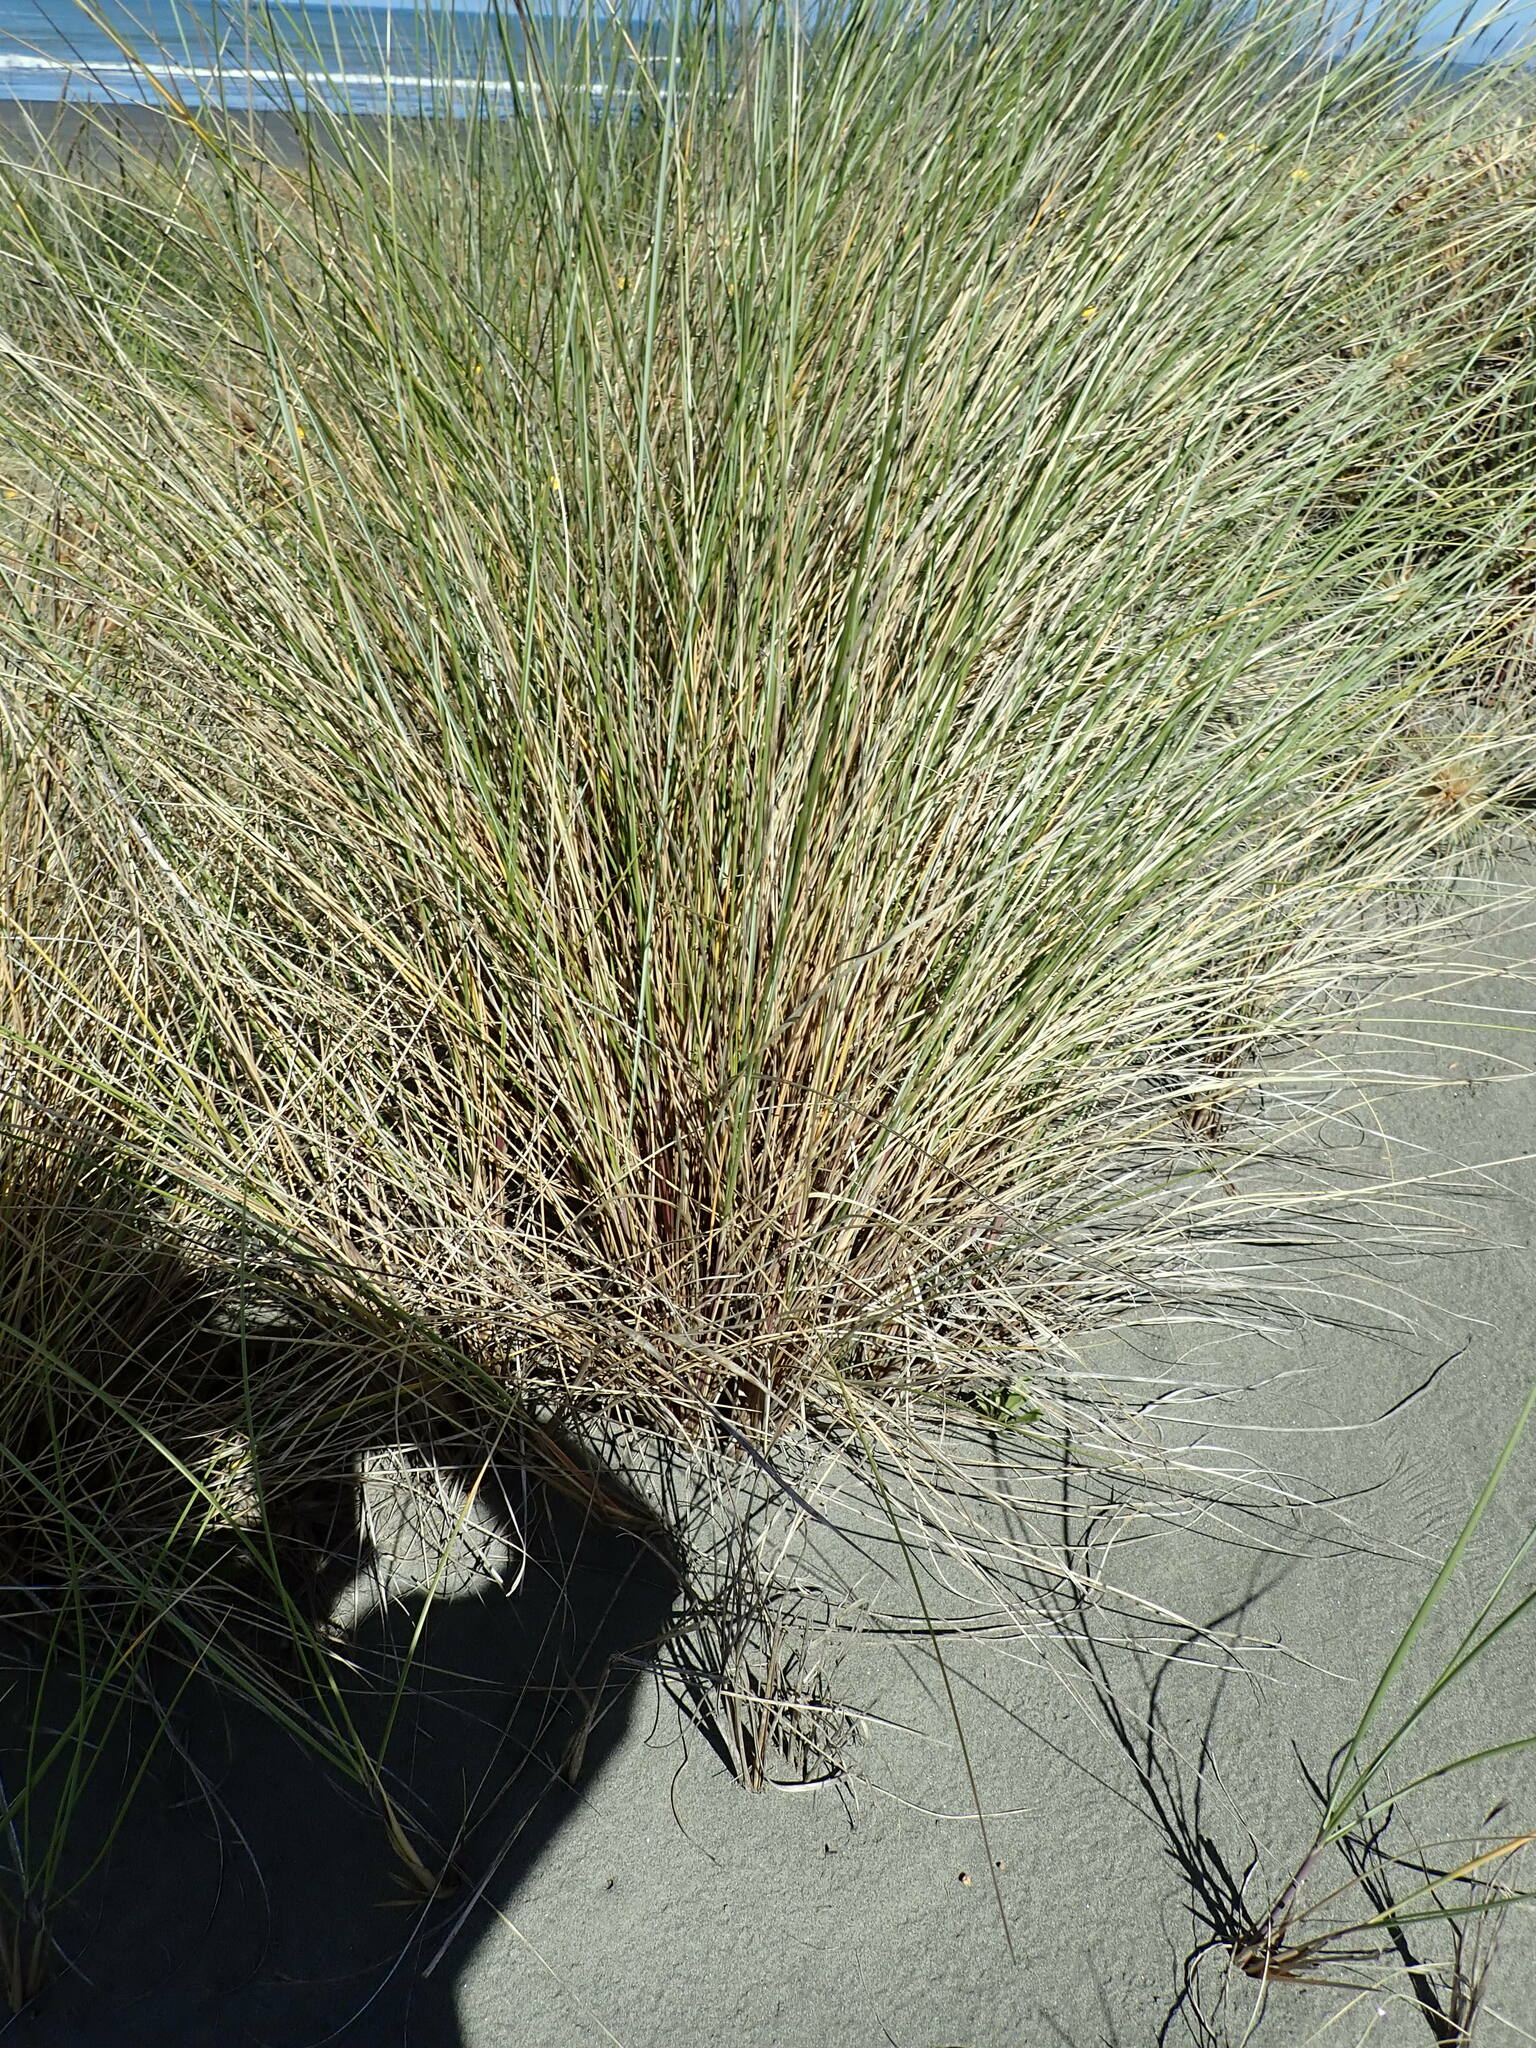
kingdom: Plantae
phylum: Tracheophyta
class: Liliopsida
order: Poales
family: Poaceae
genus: Calamagrostis
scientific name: Calamagrostis arenaria
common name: European beachgrass
